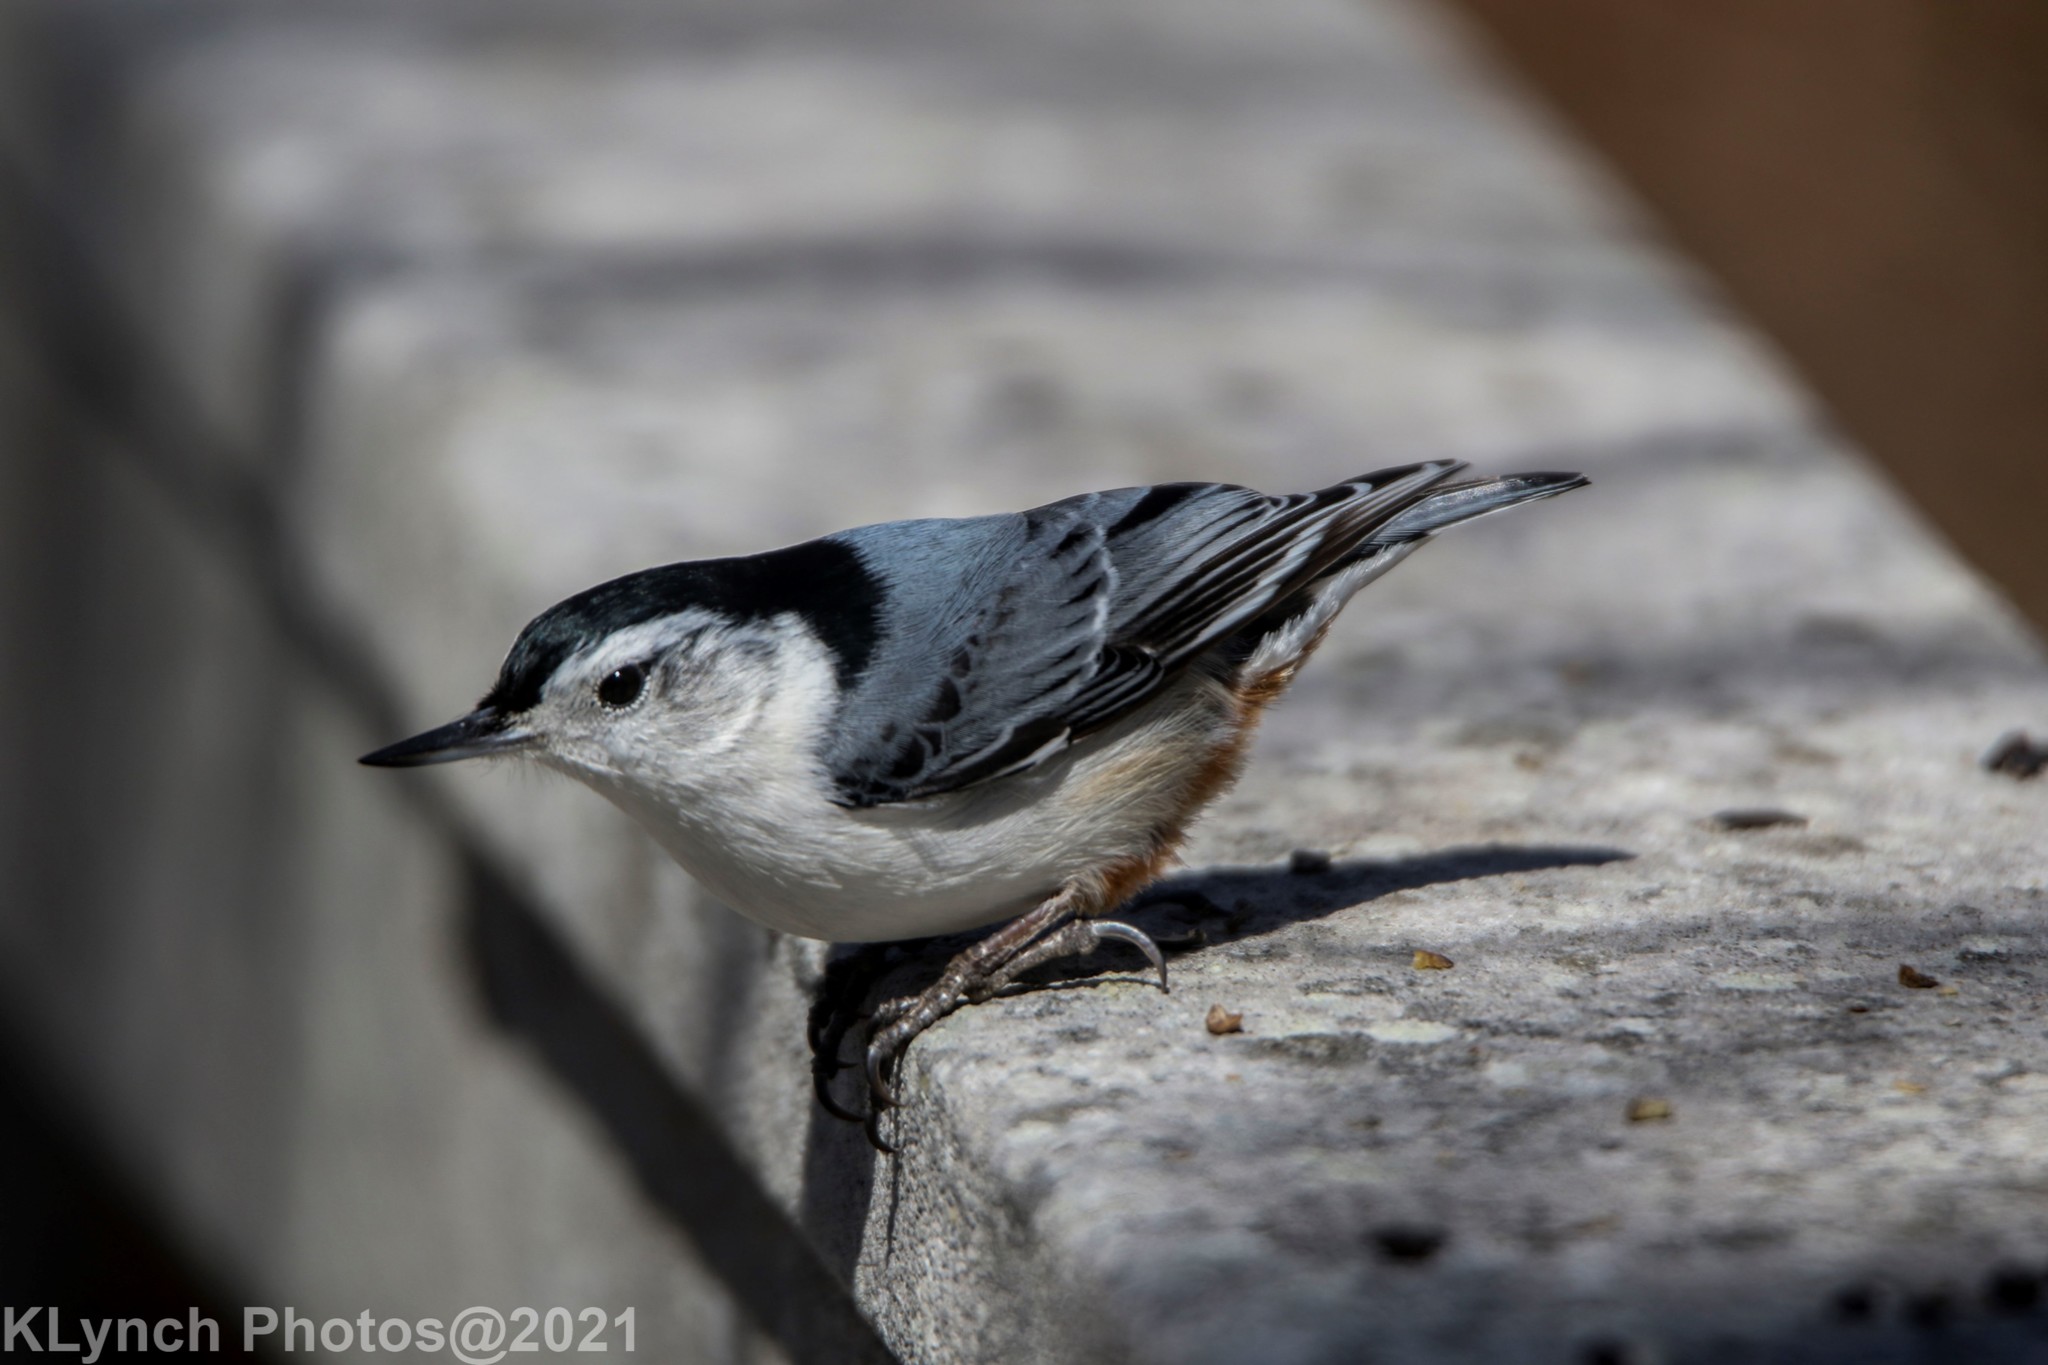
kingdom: Animalia
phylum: Chordata
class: Aves
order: Passeriformes
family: Sittidae
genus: Sitta
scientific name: Sitta carolinensis
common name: White-breasted nuthatch
